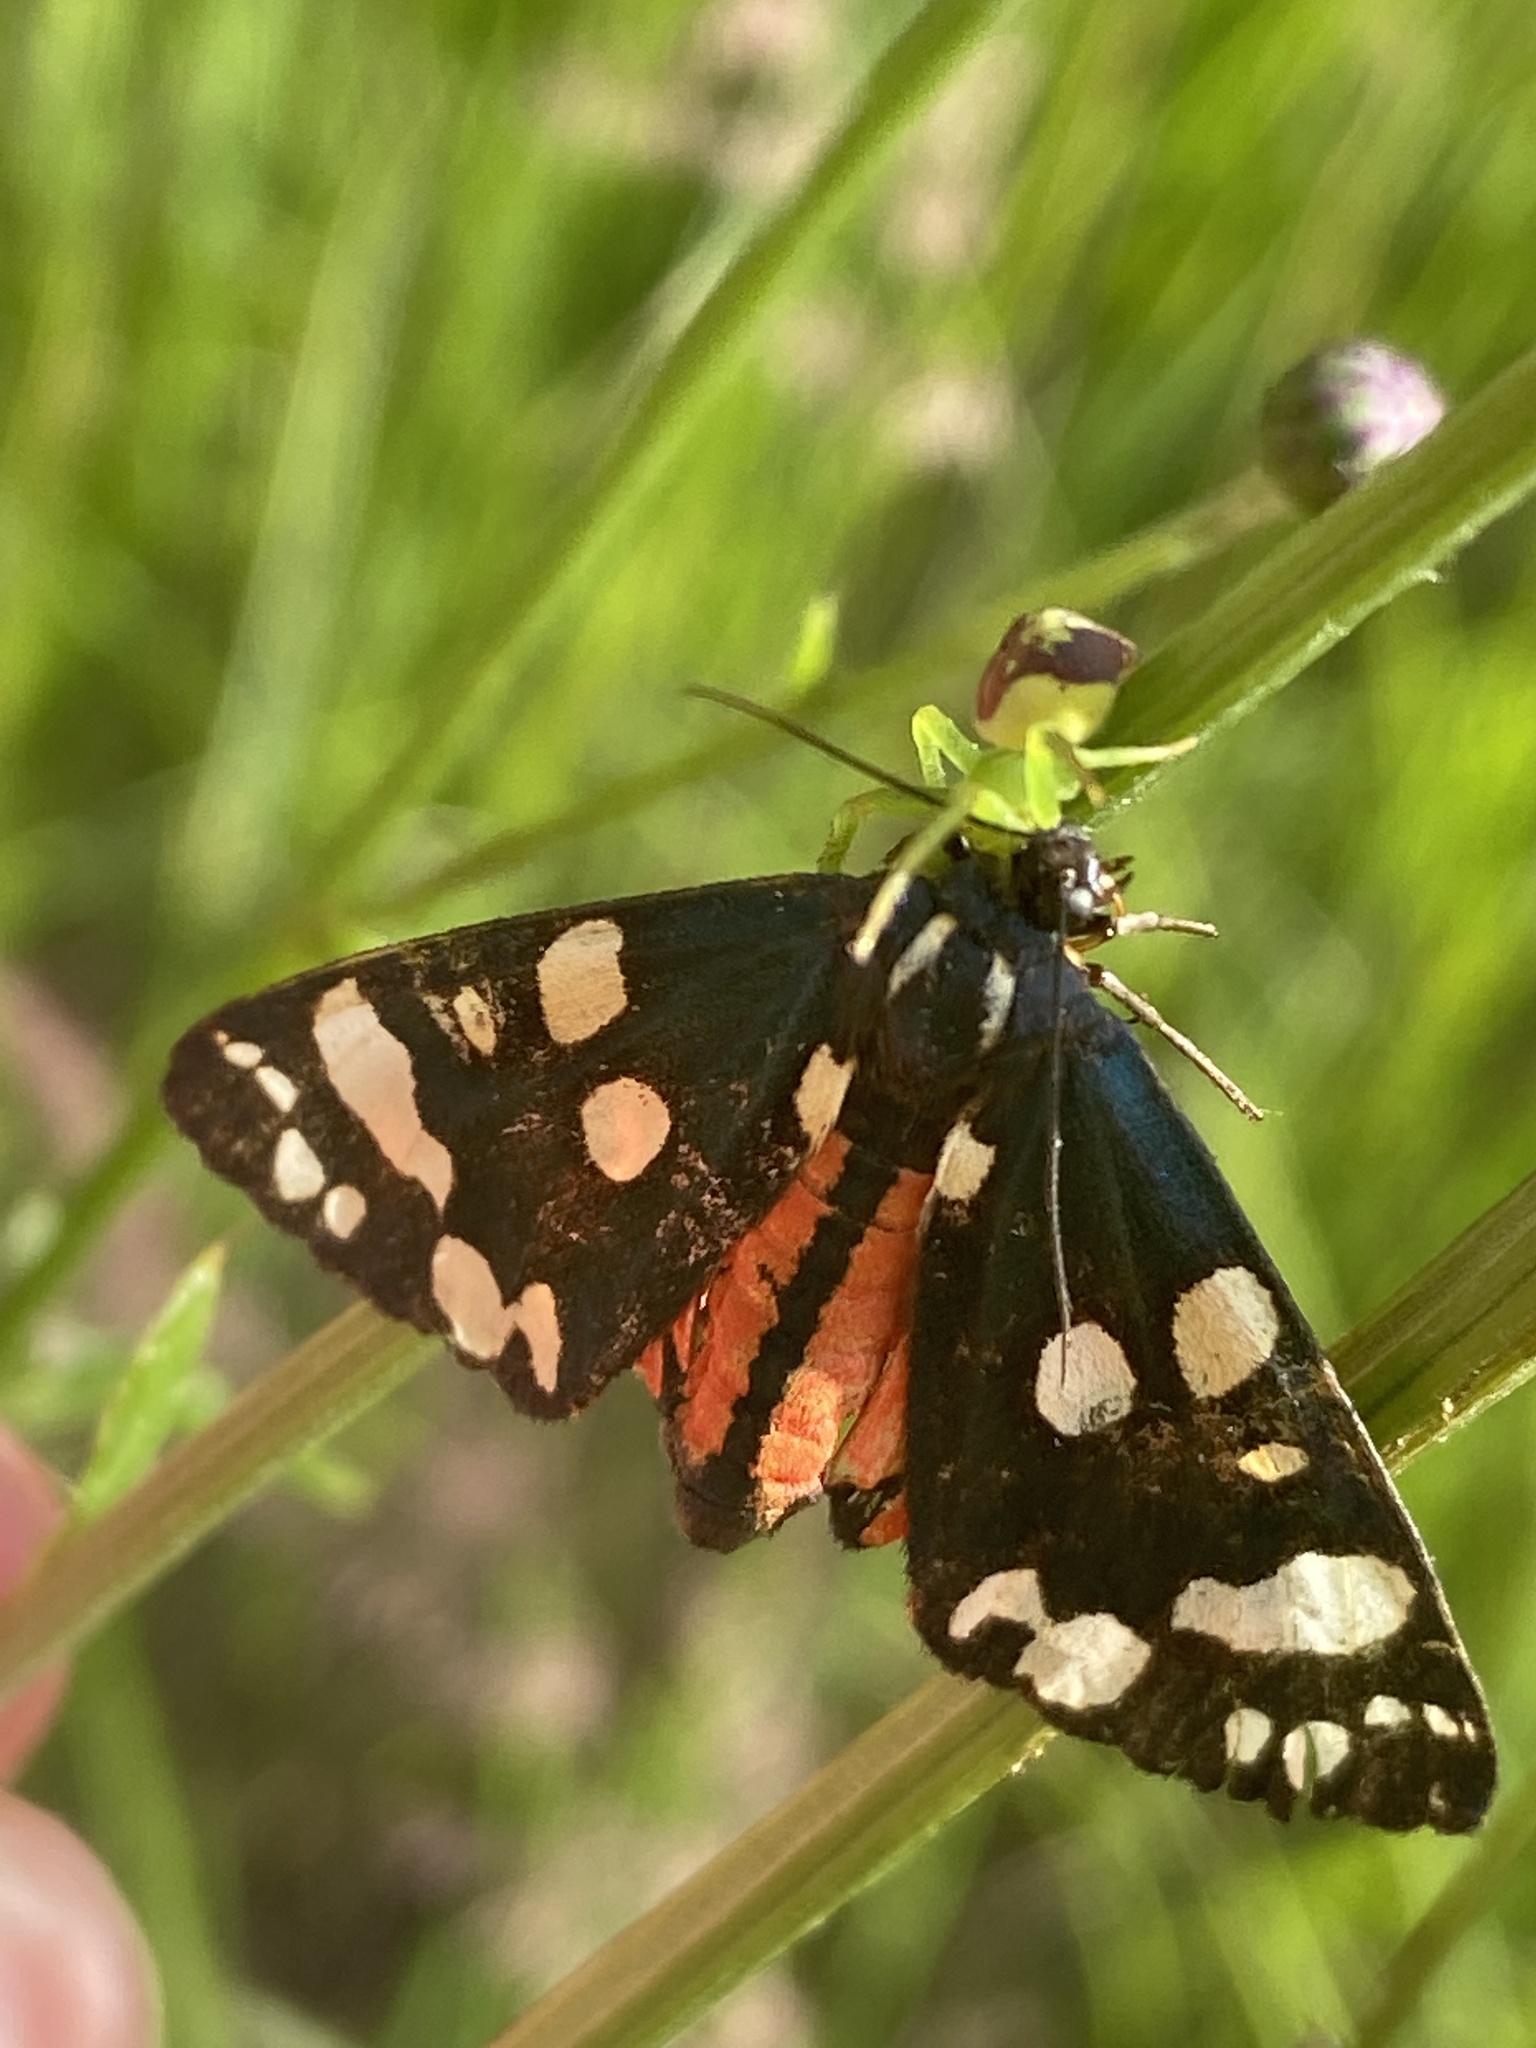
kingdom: Animalia
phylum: Arthropoda
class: Insecta
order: Lepidoptera
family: Erebidae
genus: Callimorpha
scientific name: Callimorpha dominula
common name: Scarlet tiger
